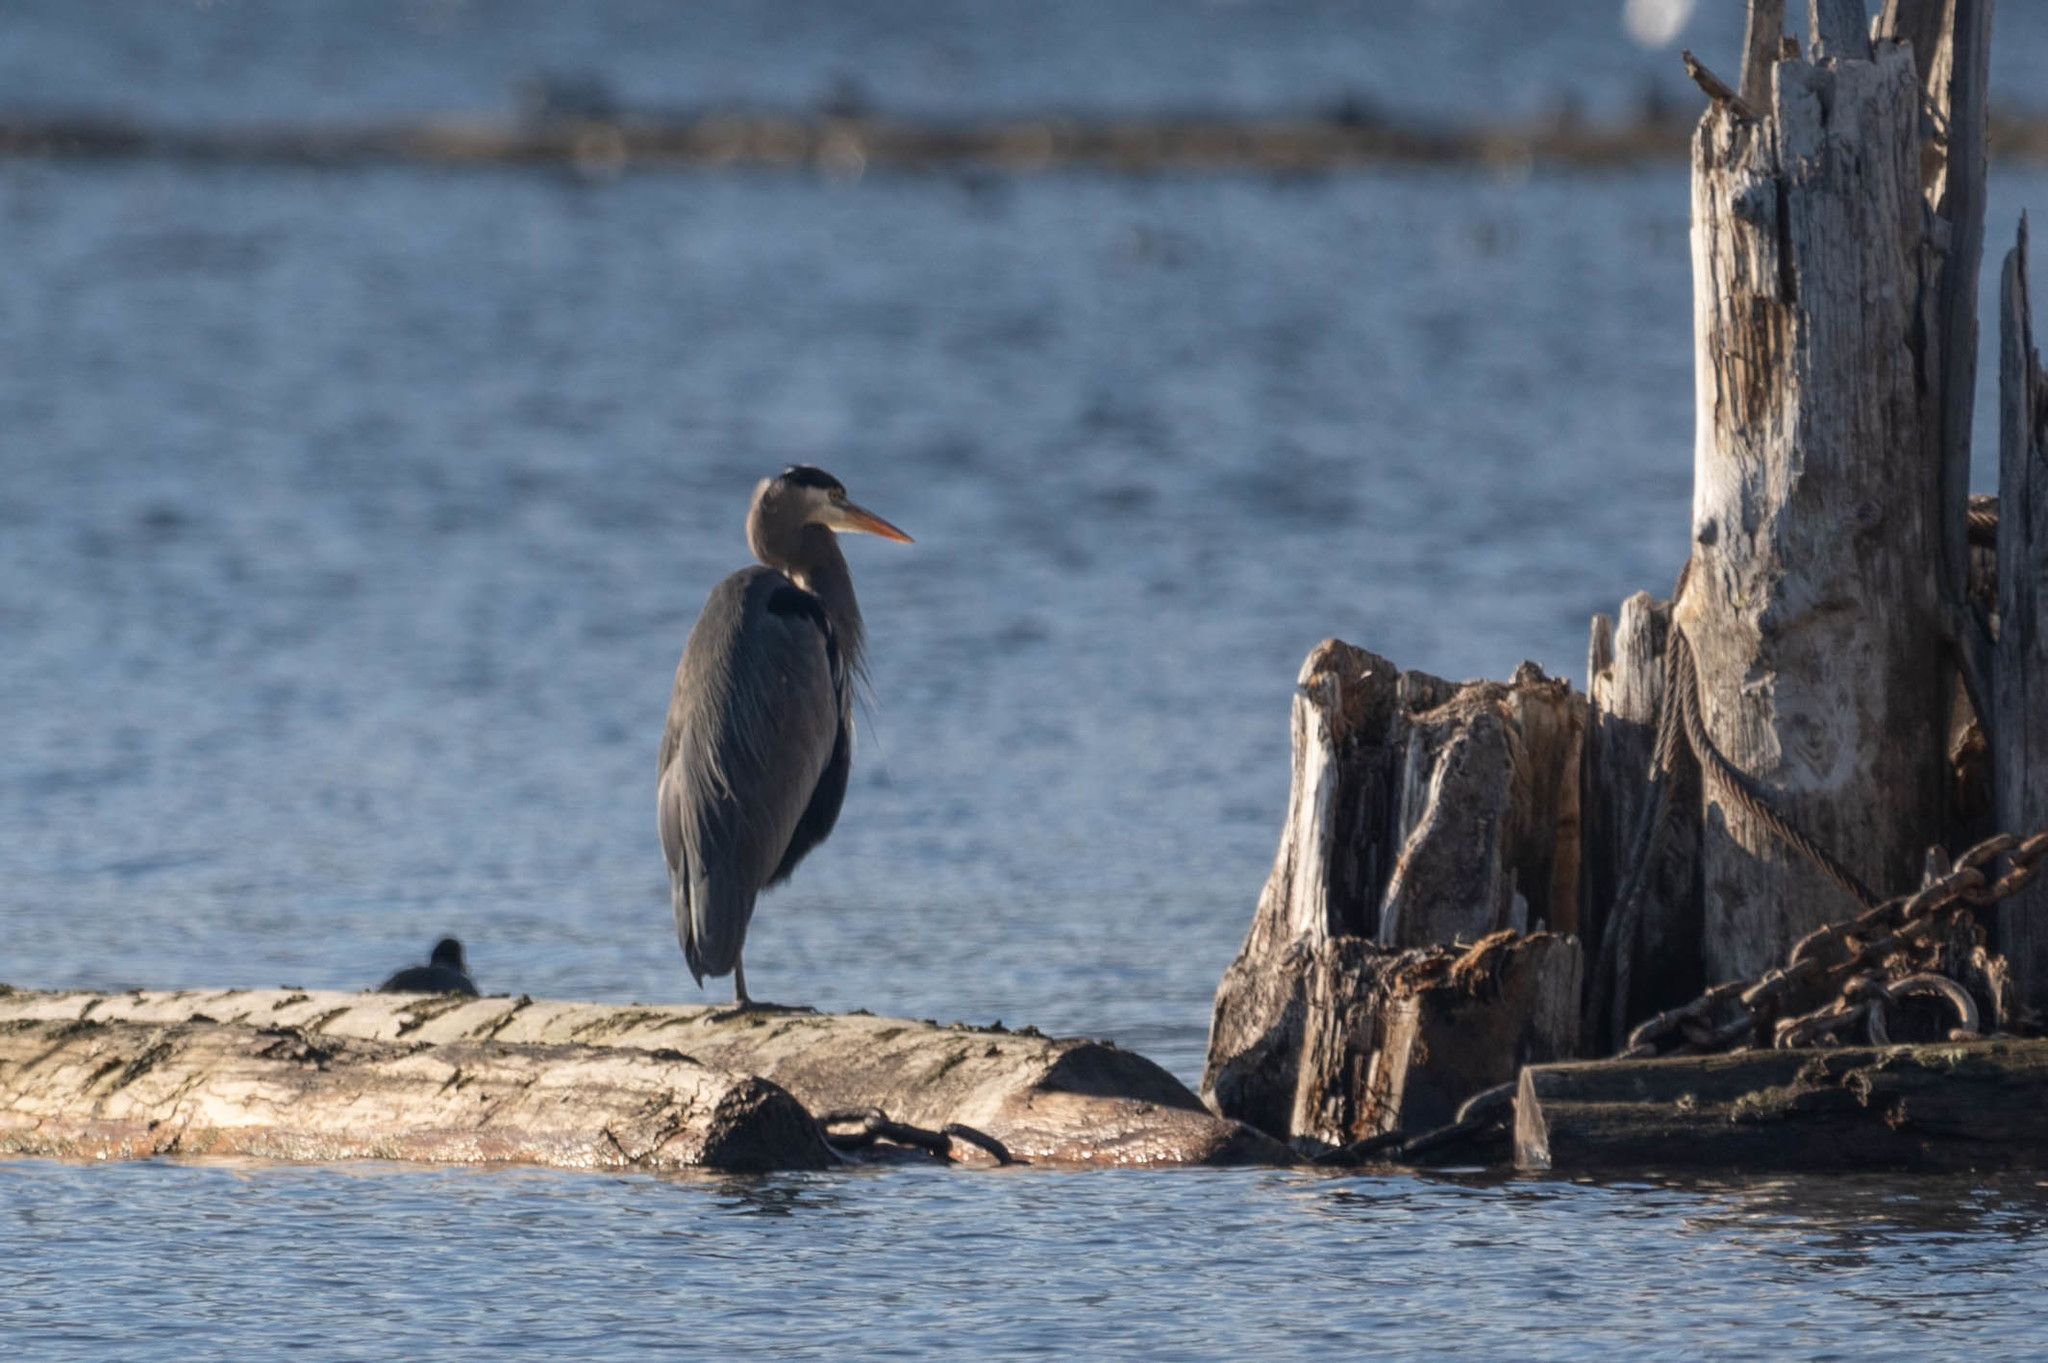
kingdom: Animalia
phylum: Chordata
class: Aves
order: Pelecaniformes
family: Ardeidae
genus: Ardea
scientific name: Ardea herodias
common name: Great blue heron
